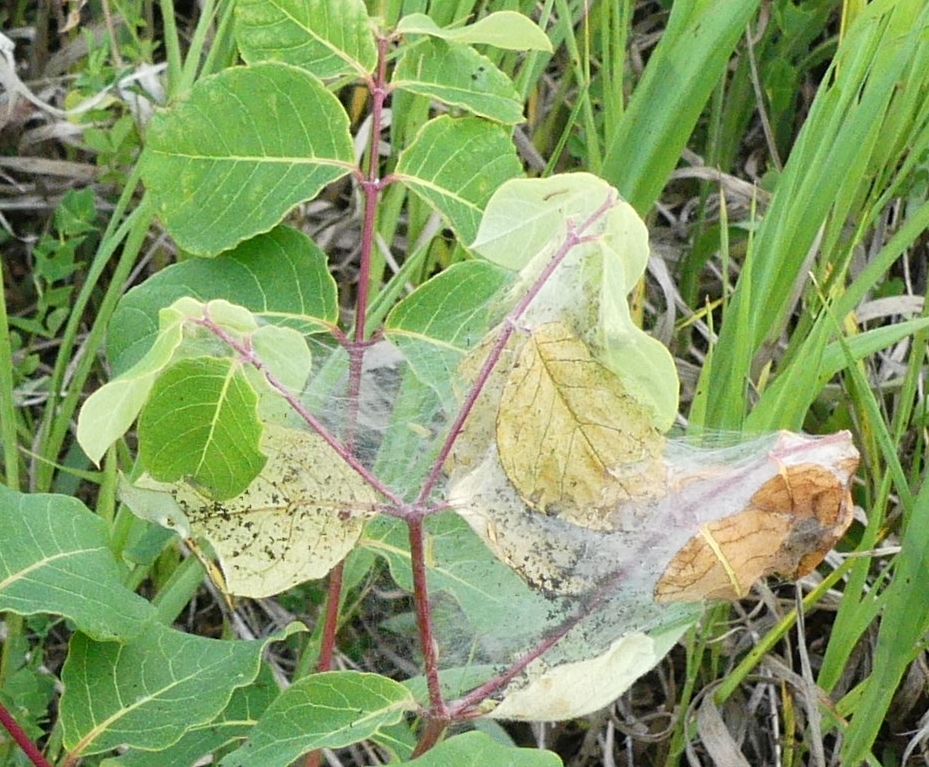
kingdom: Animalia
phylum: Arthropoda
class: Insecta
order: Lepidoptera
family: Crambidae
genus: Saucrobotys
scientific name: Saucrobotys futilalis
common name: Dogbane saucrobotys moth
